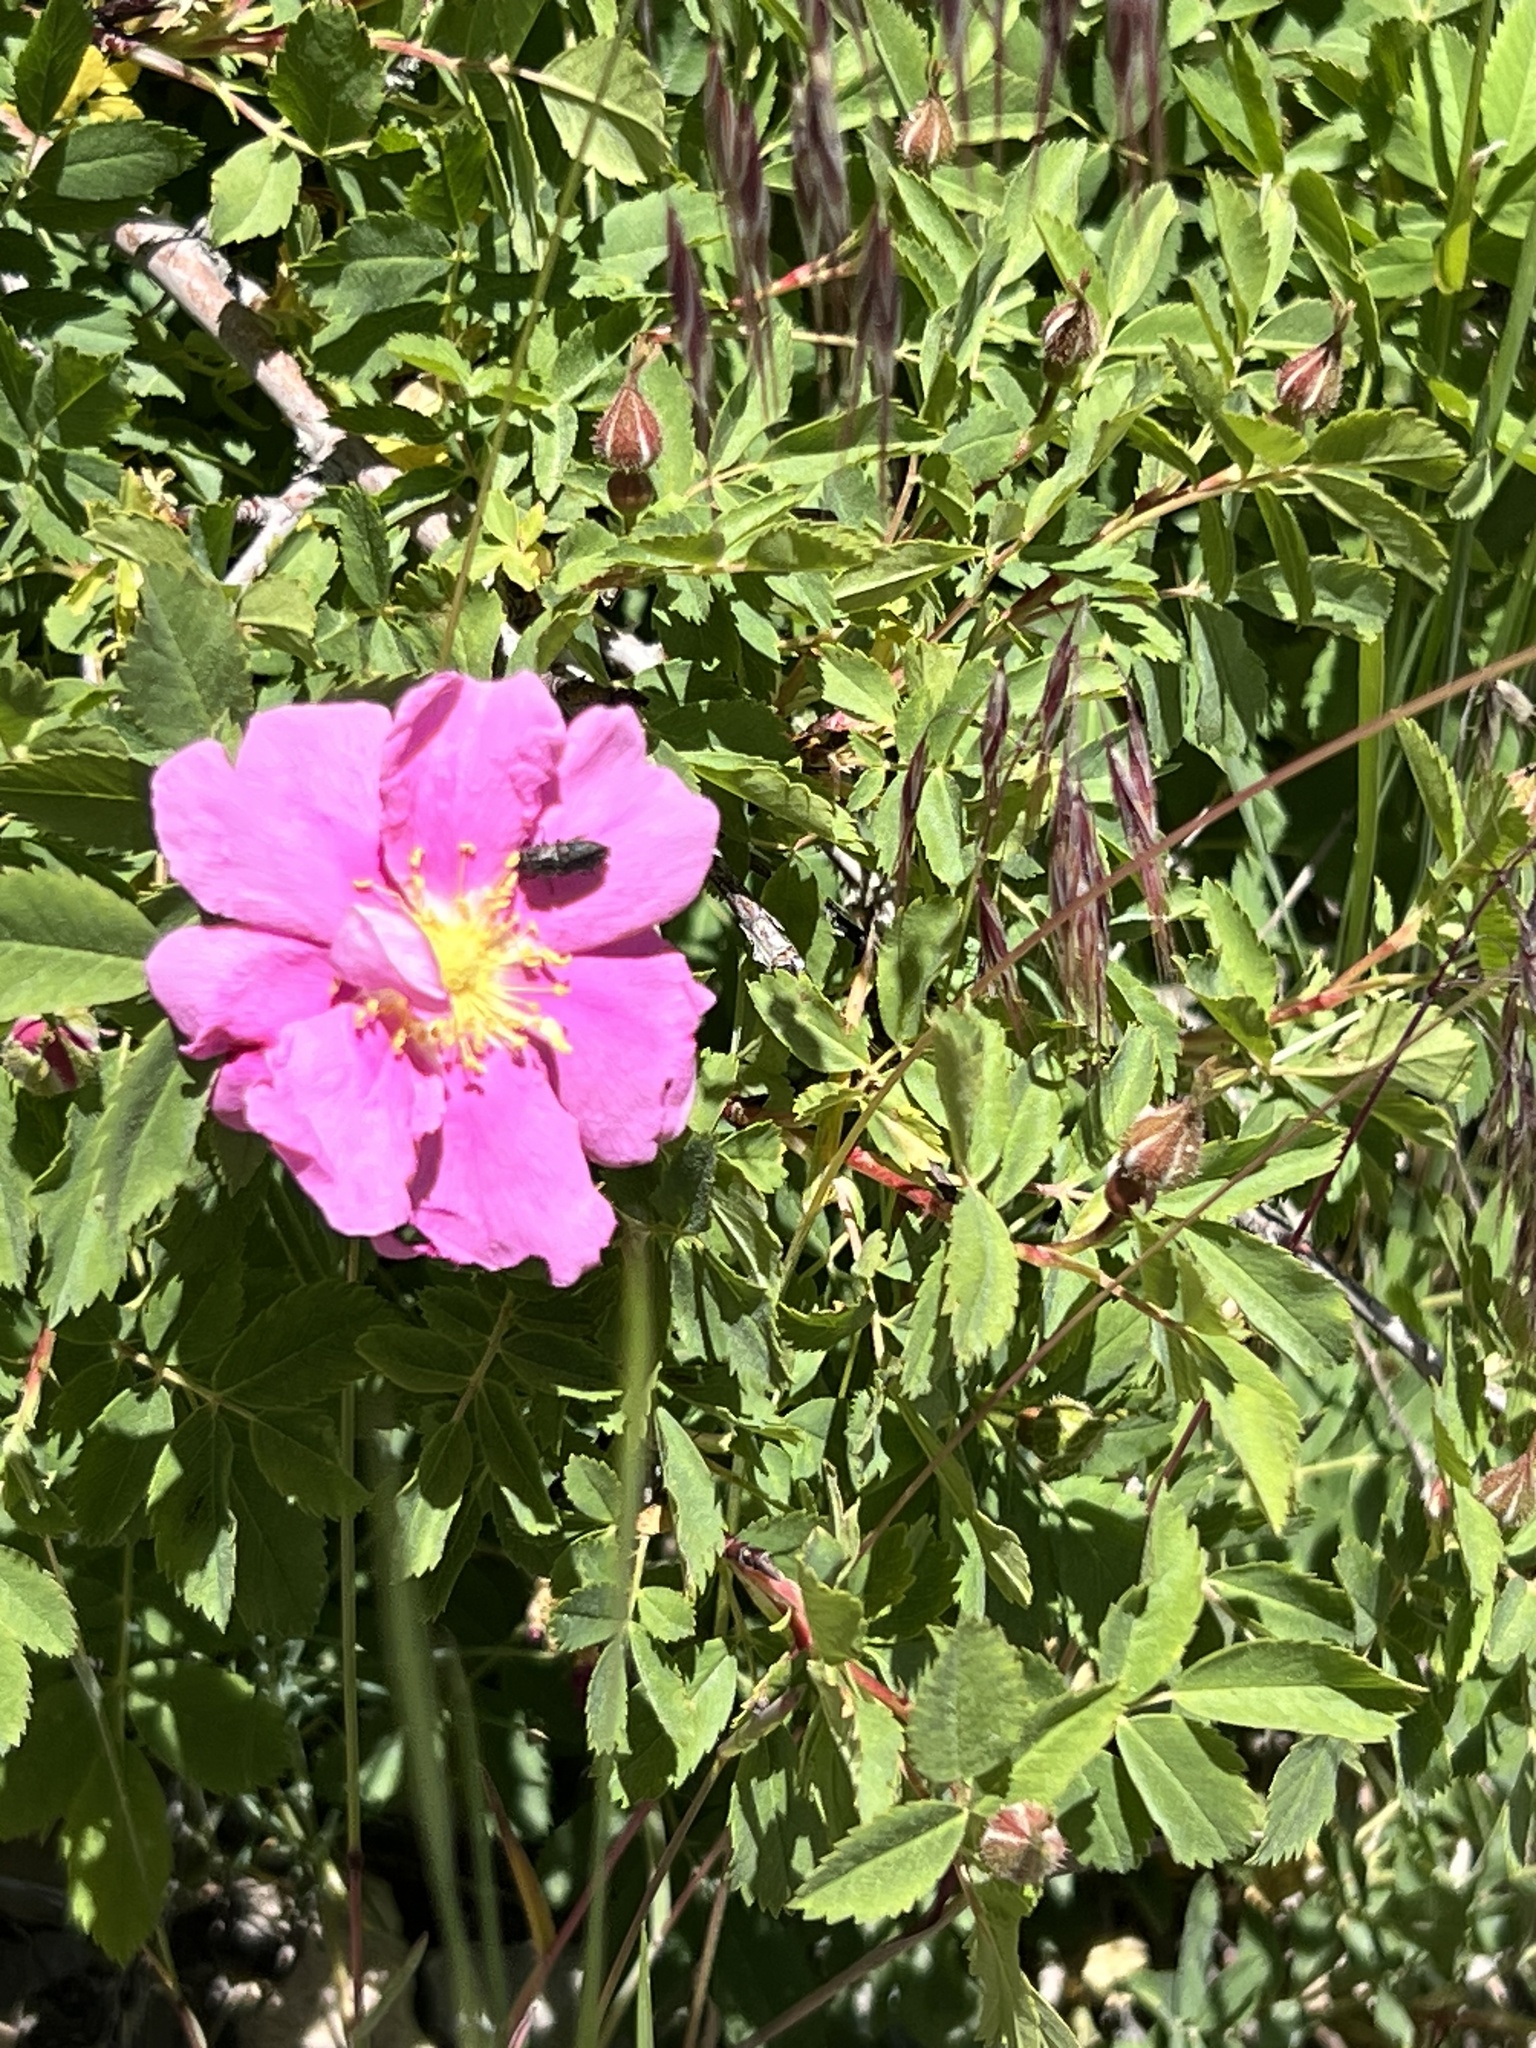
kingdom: Plantae
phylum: Tracheophyta
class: Magnoliopsida
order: Rosales
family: Rosaceae
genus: Rosa
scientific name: Rosa woodsii
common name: Woods's rose
